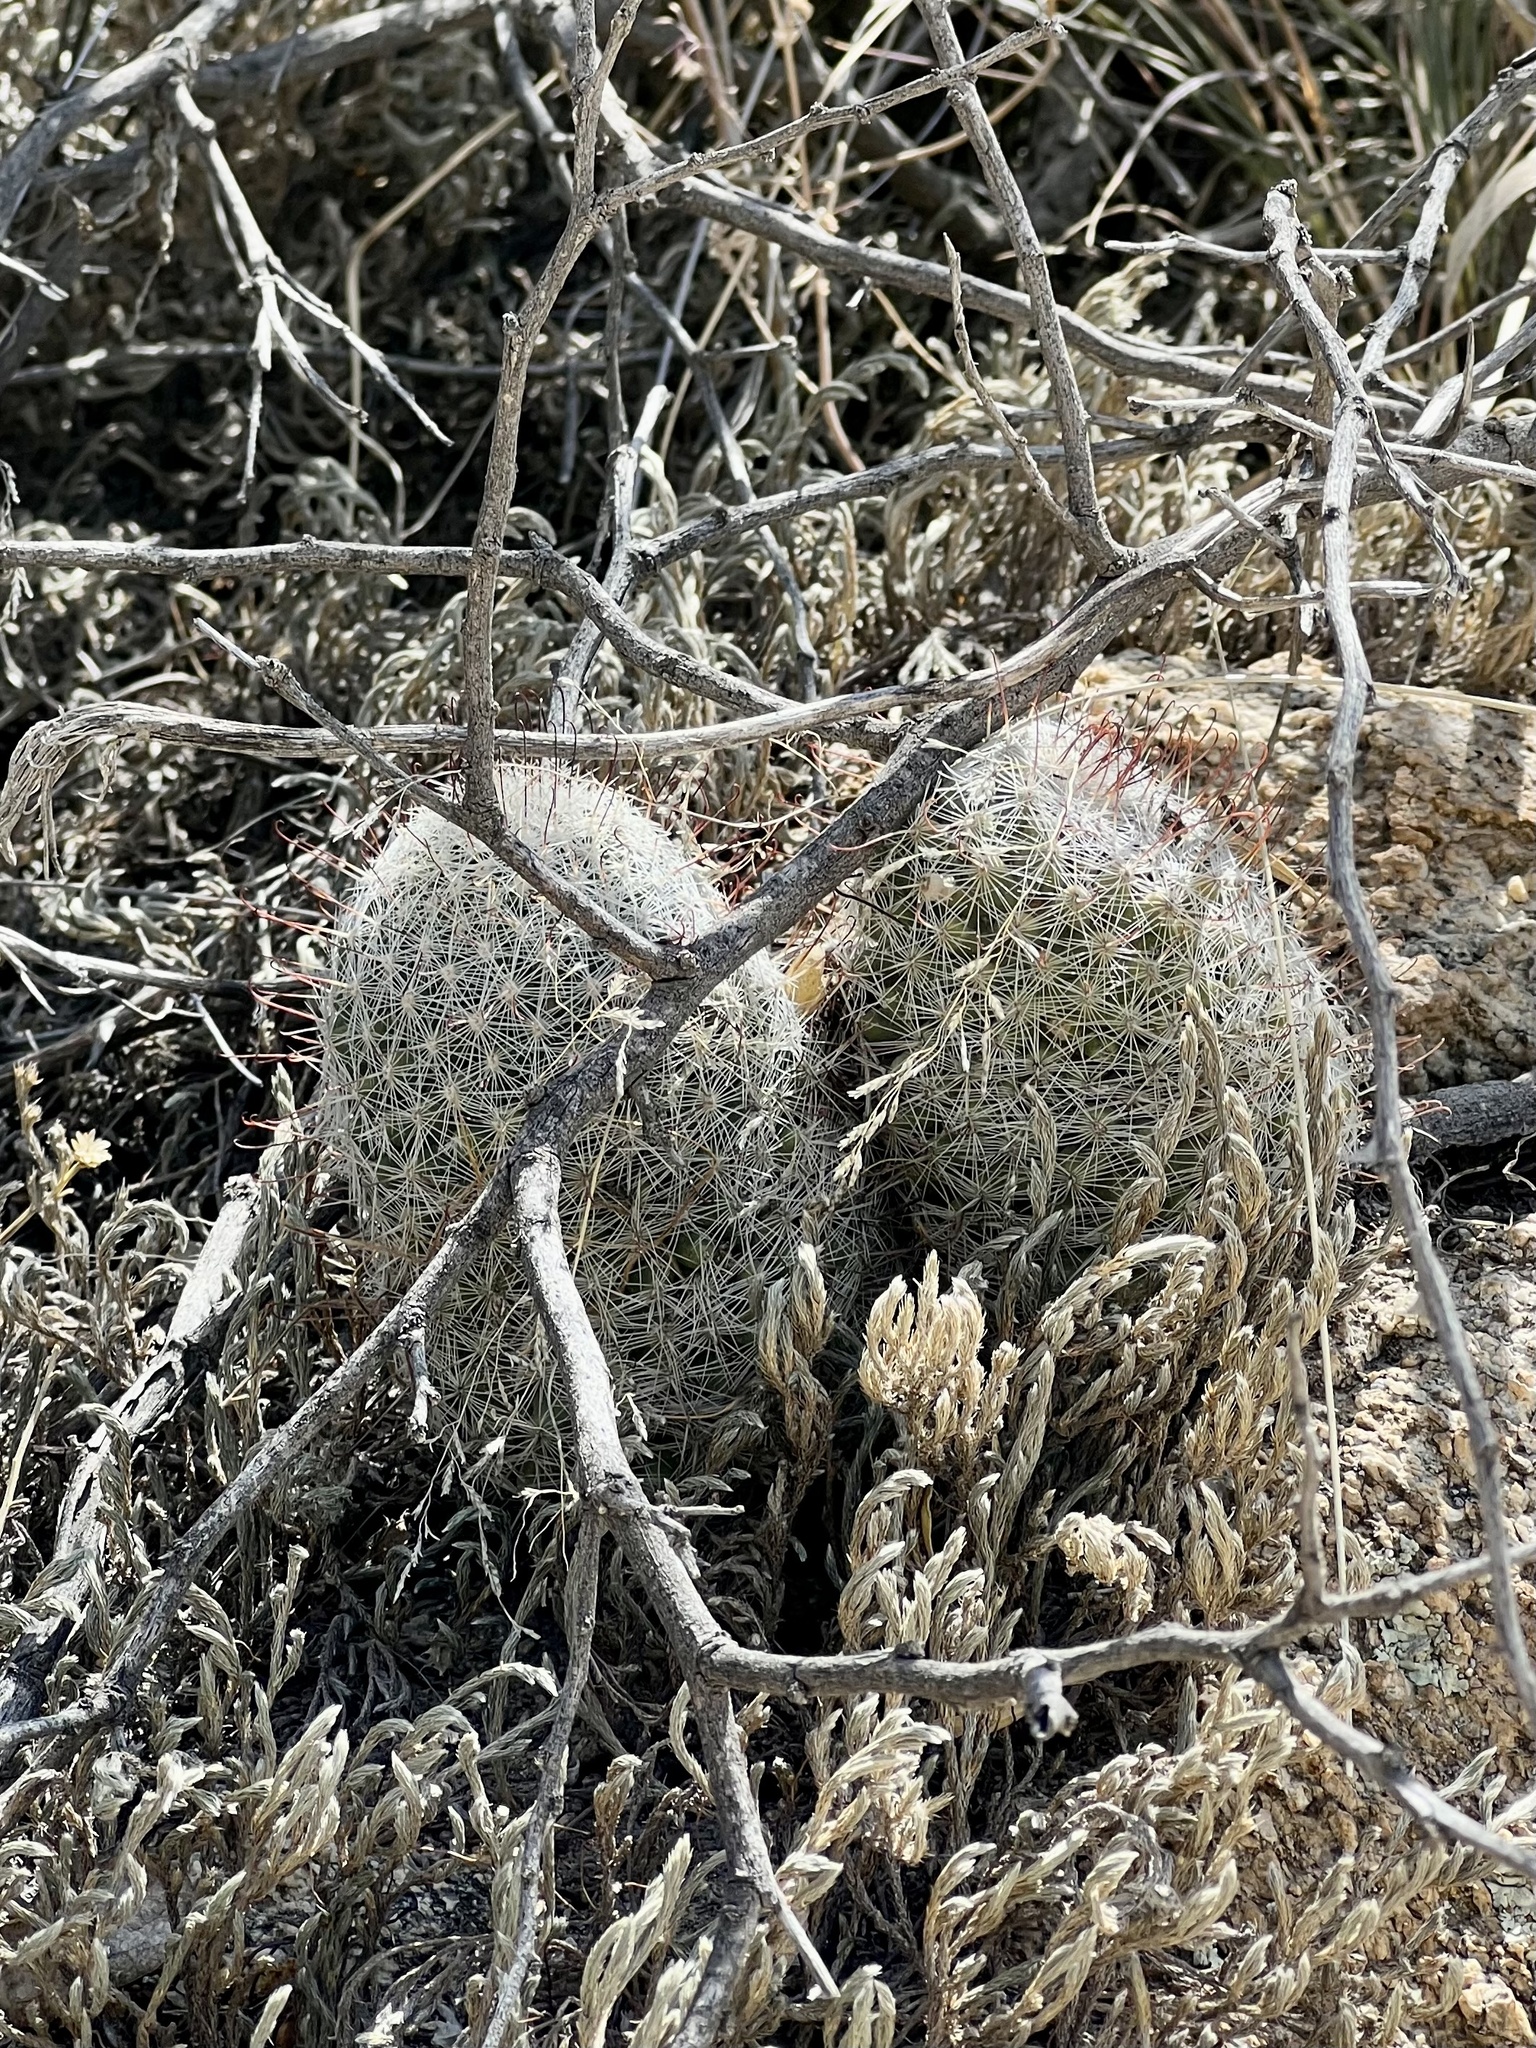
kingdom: Plantae
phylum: Tracheophyta
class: Magnoliopsida
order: Caryophyllales
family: Cactaceae
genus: Cochemiea
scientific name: Cochemiea grahamii
